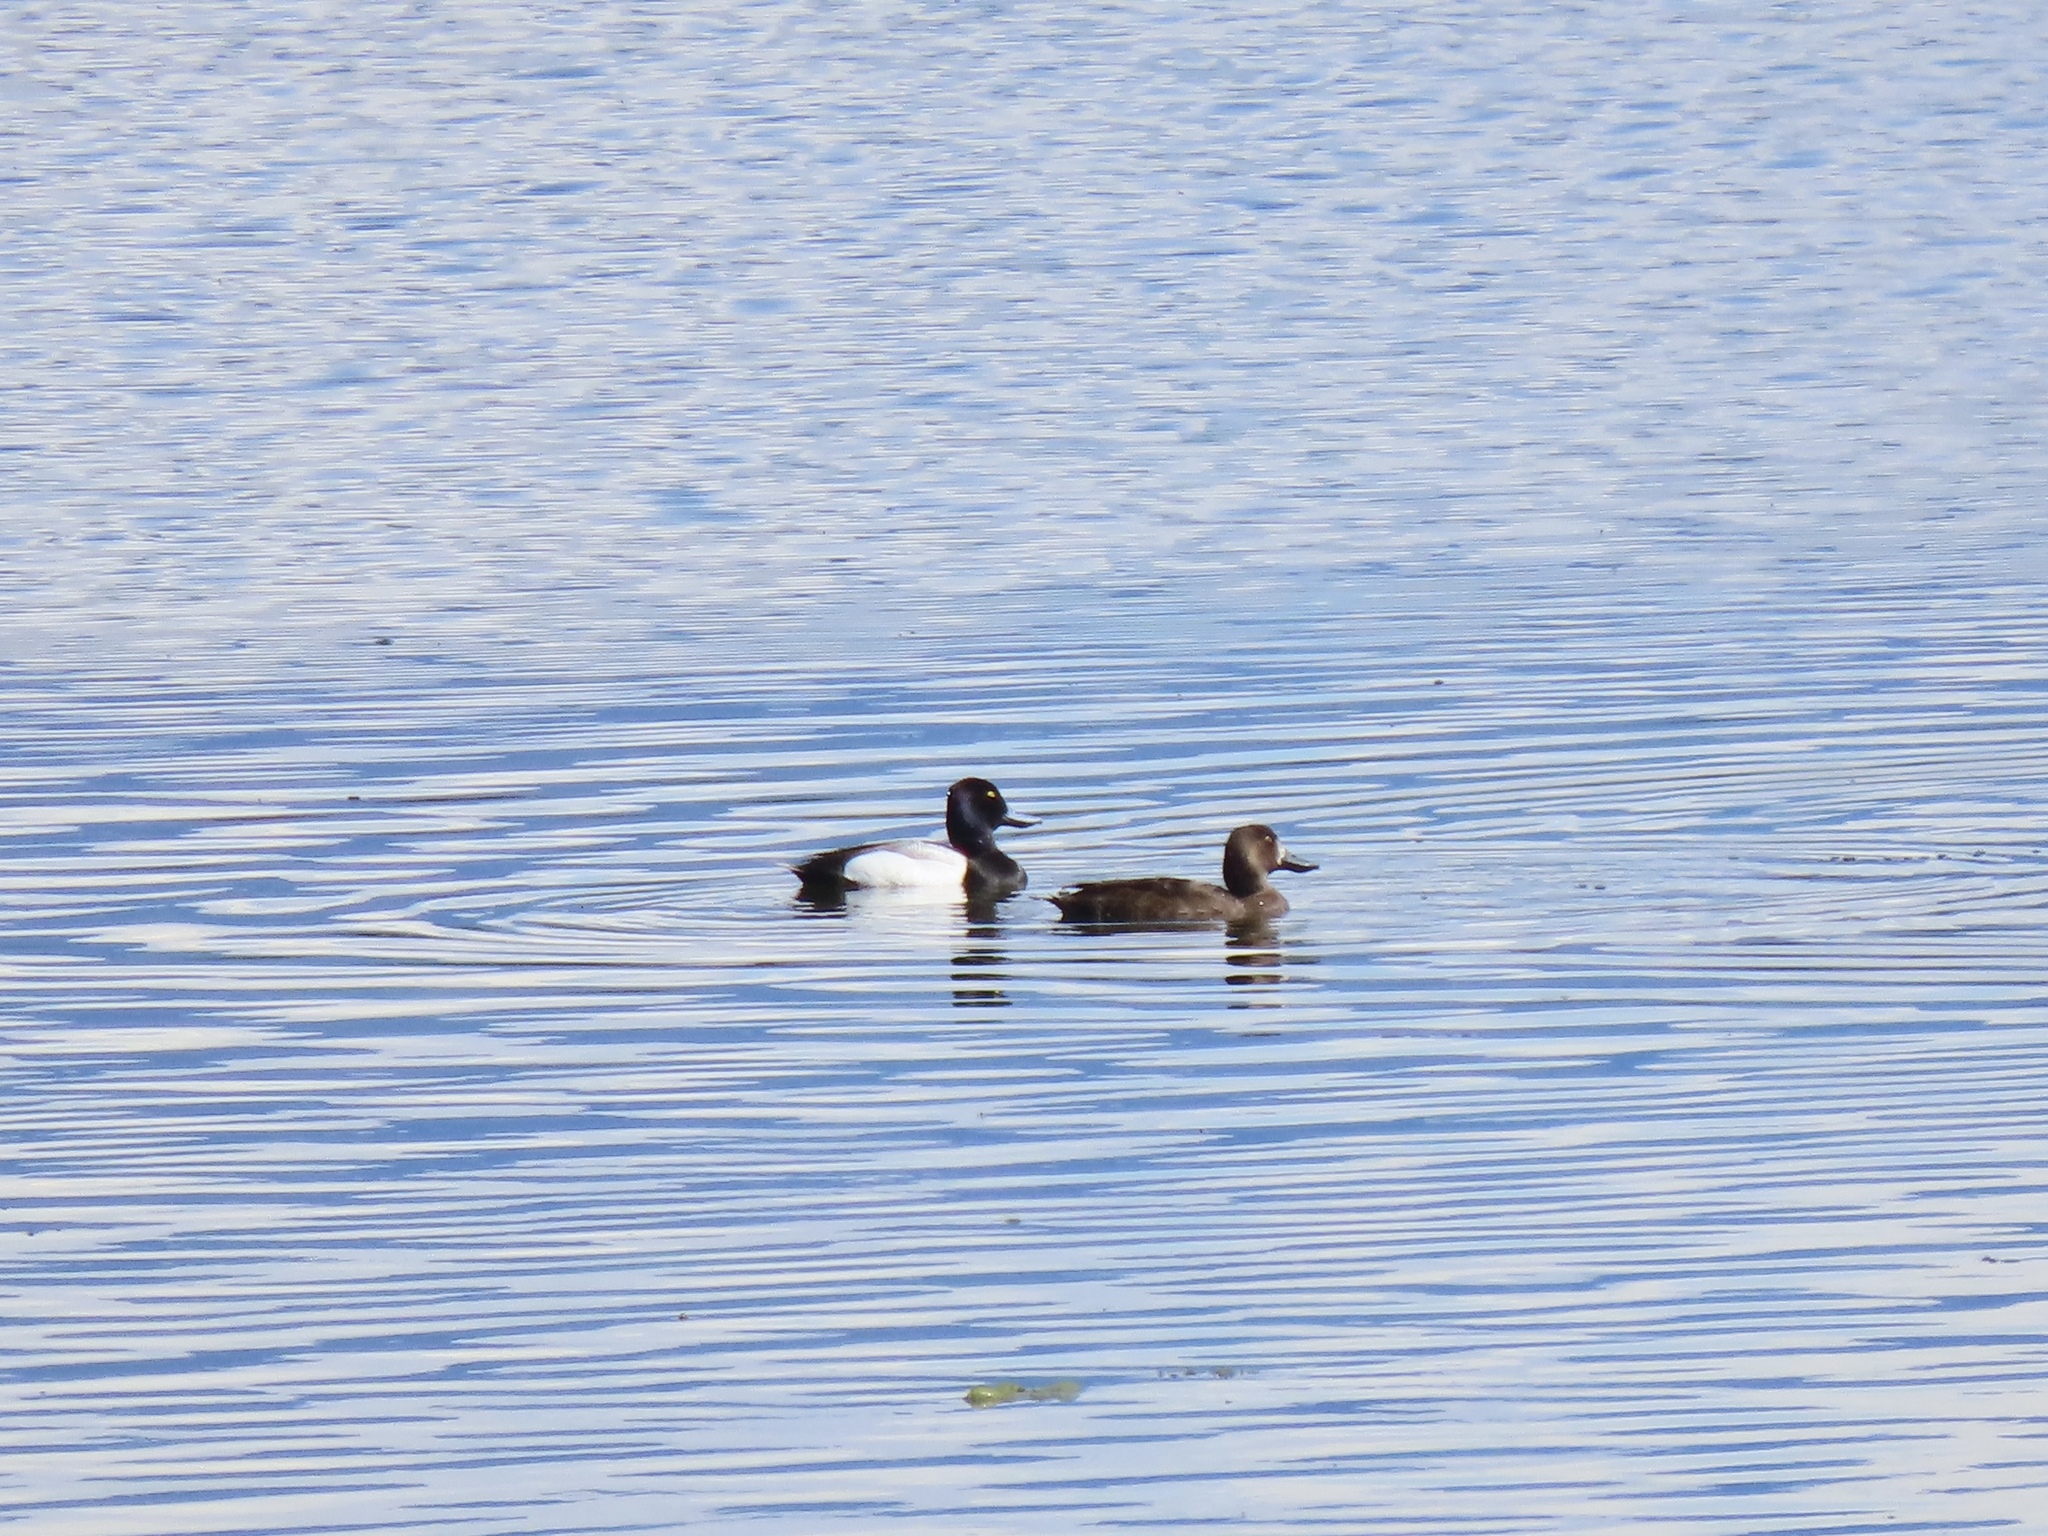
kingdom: Animalia
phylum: Chordata
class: Aves
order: Anseriformes
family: Anatidae
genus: Aythya
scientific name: Aythya affinis
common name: Lesser scaup
